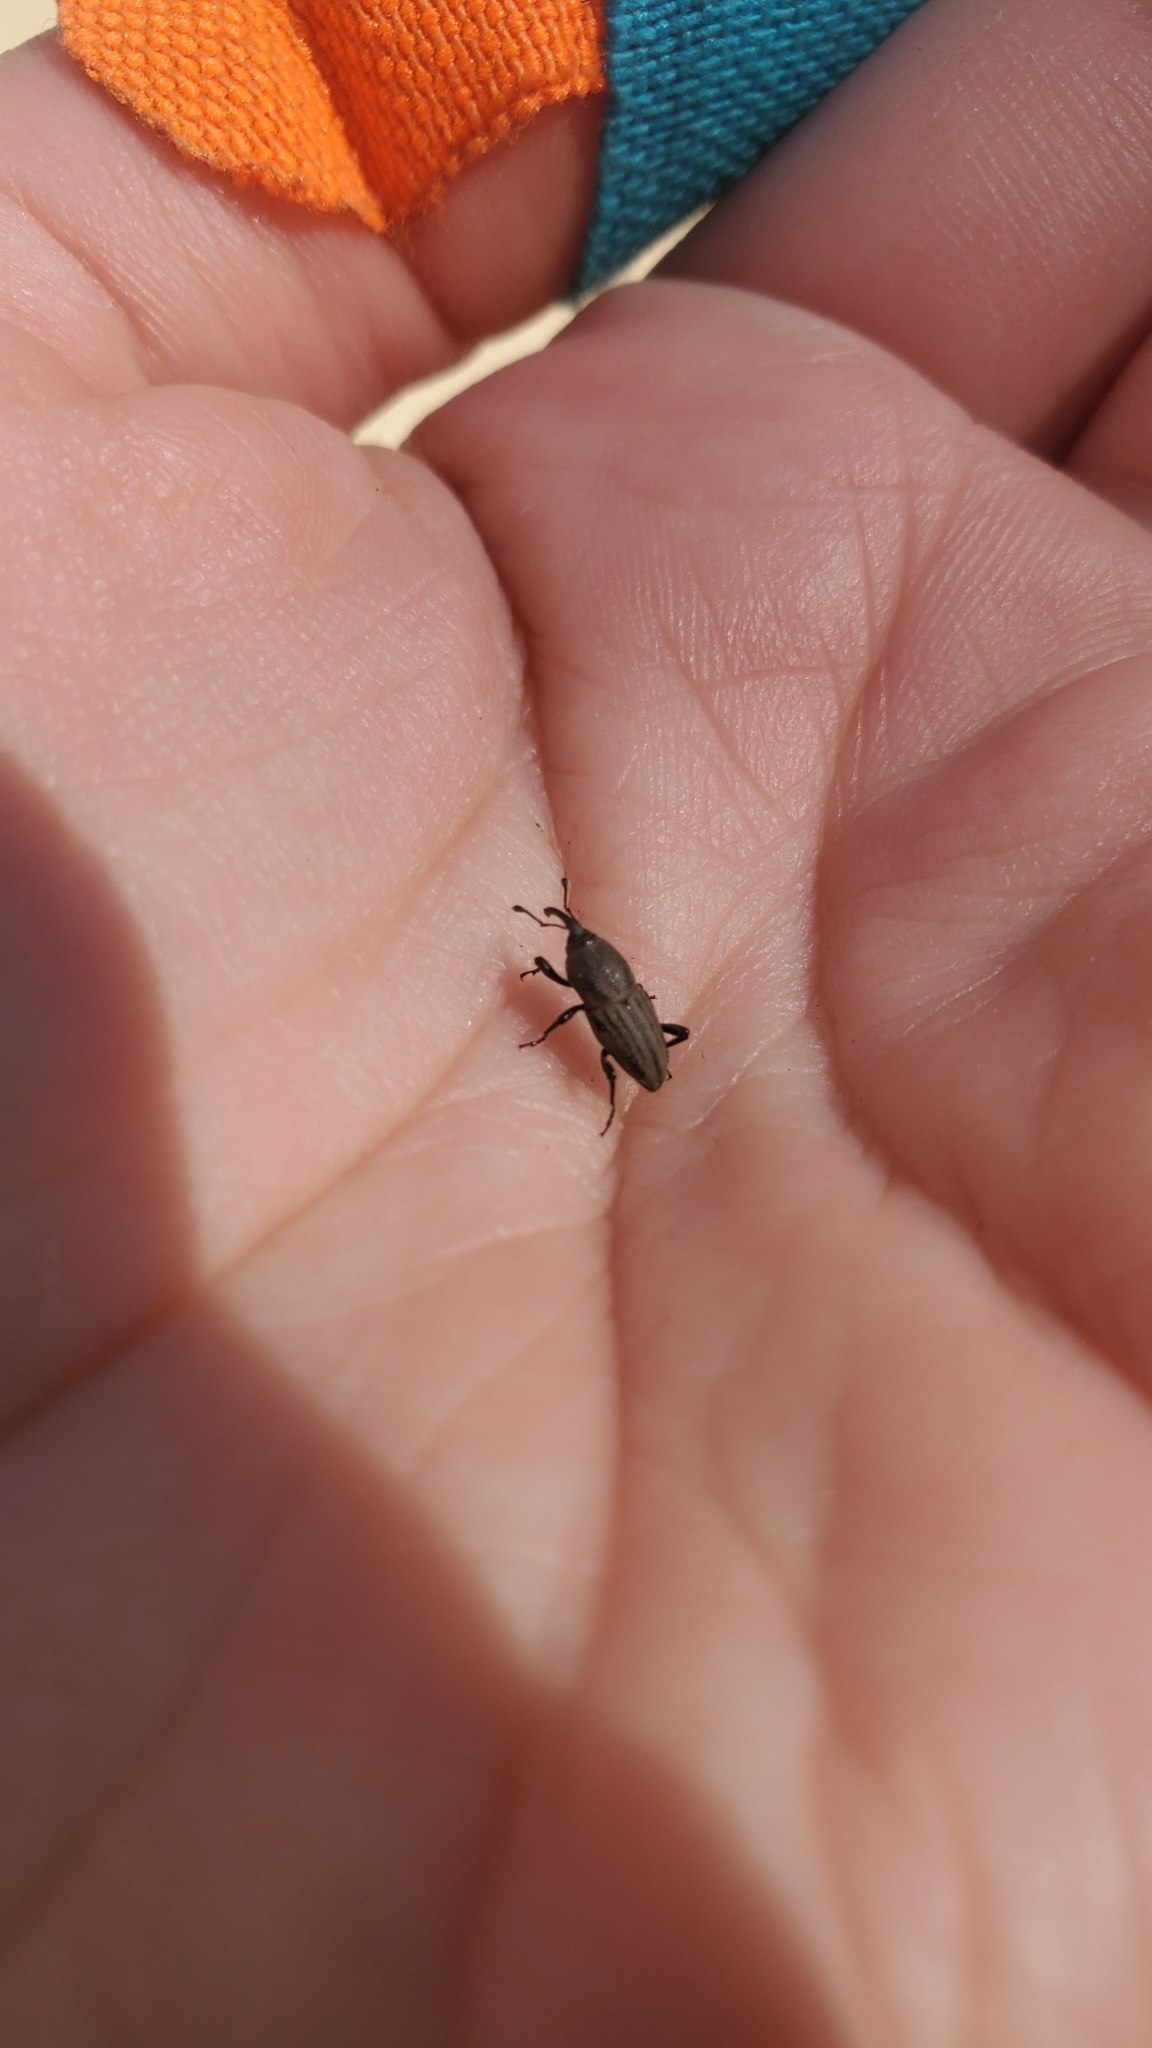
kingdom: Animalia
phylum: Arthropoda
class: Insecta
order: Coleoptera
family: Dryophthoridae
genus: Sphenophorus
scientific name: Sphenophorus interstitialis
